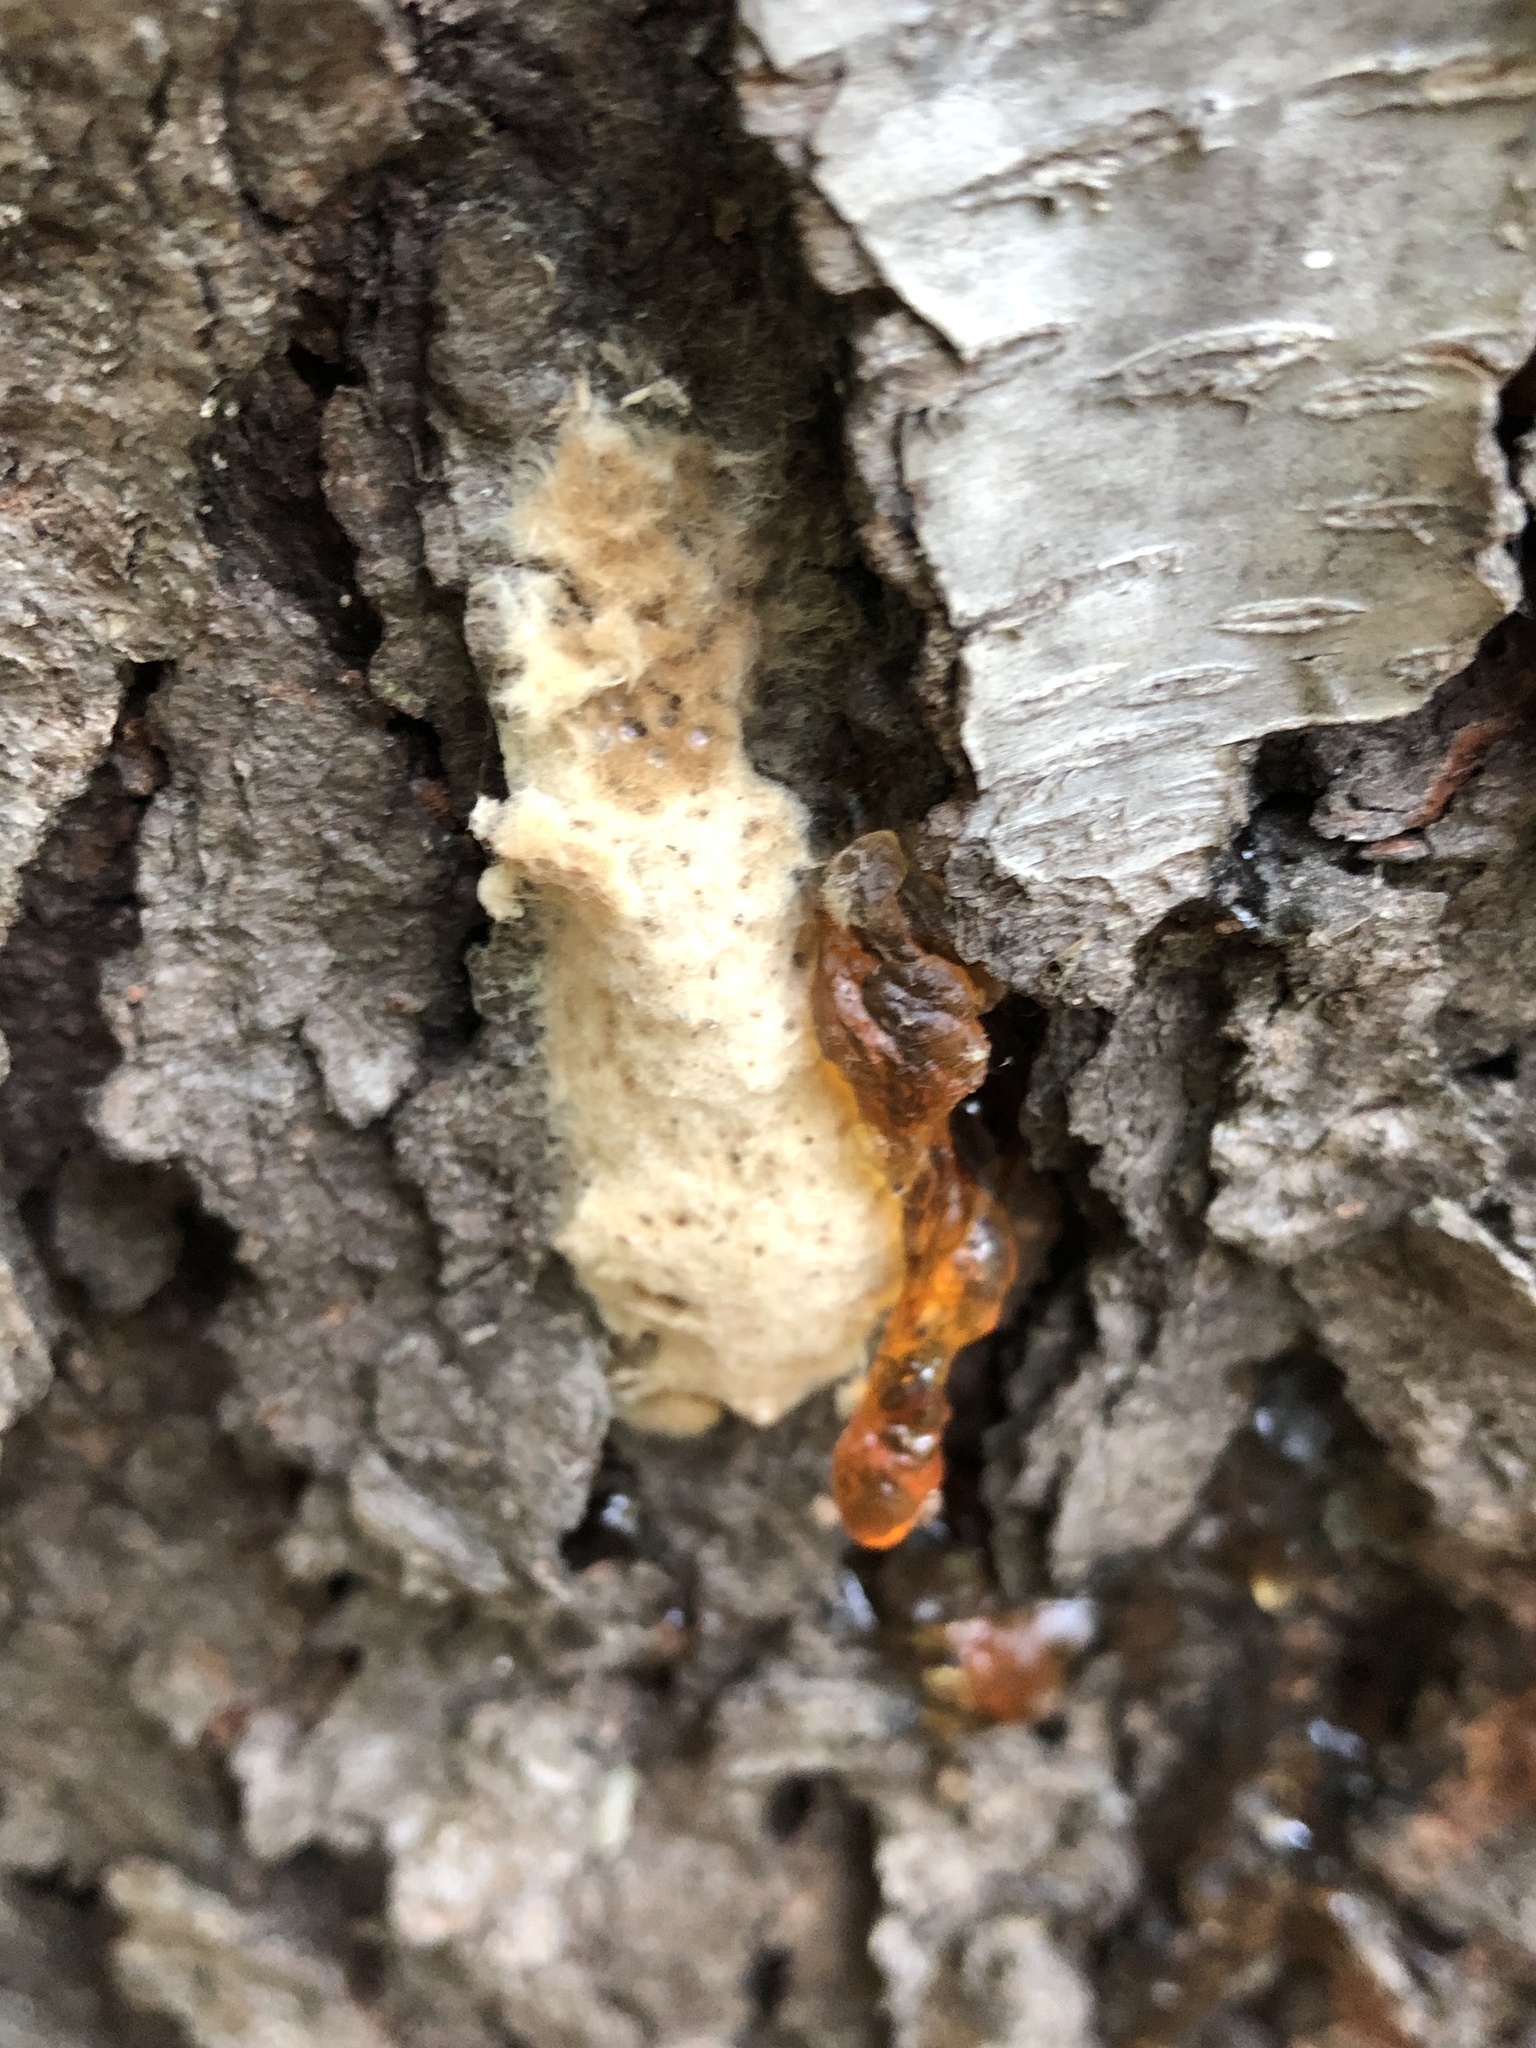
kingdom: Animalia
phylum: Arthropoda
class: Insecta
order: Lepidoptera
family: Erebidae
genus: Lymantria
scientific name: Lymantria dispar
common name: Gypsy moth
